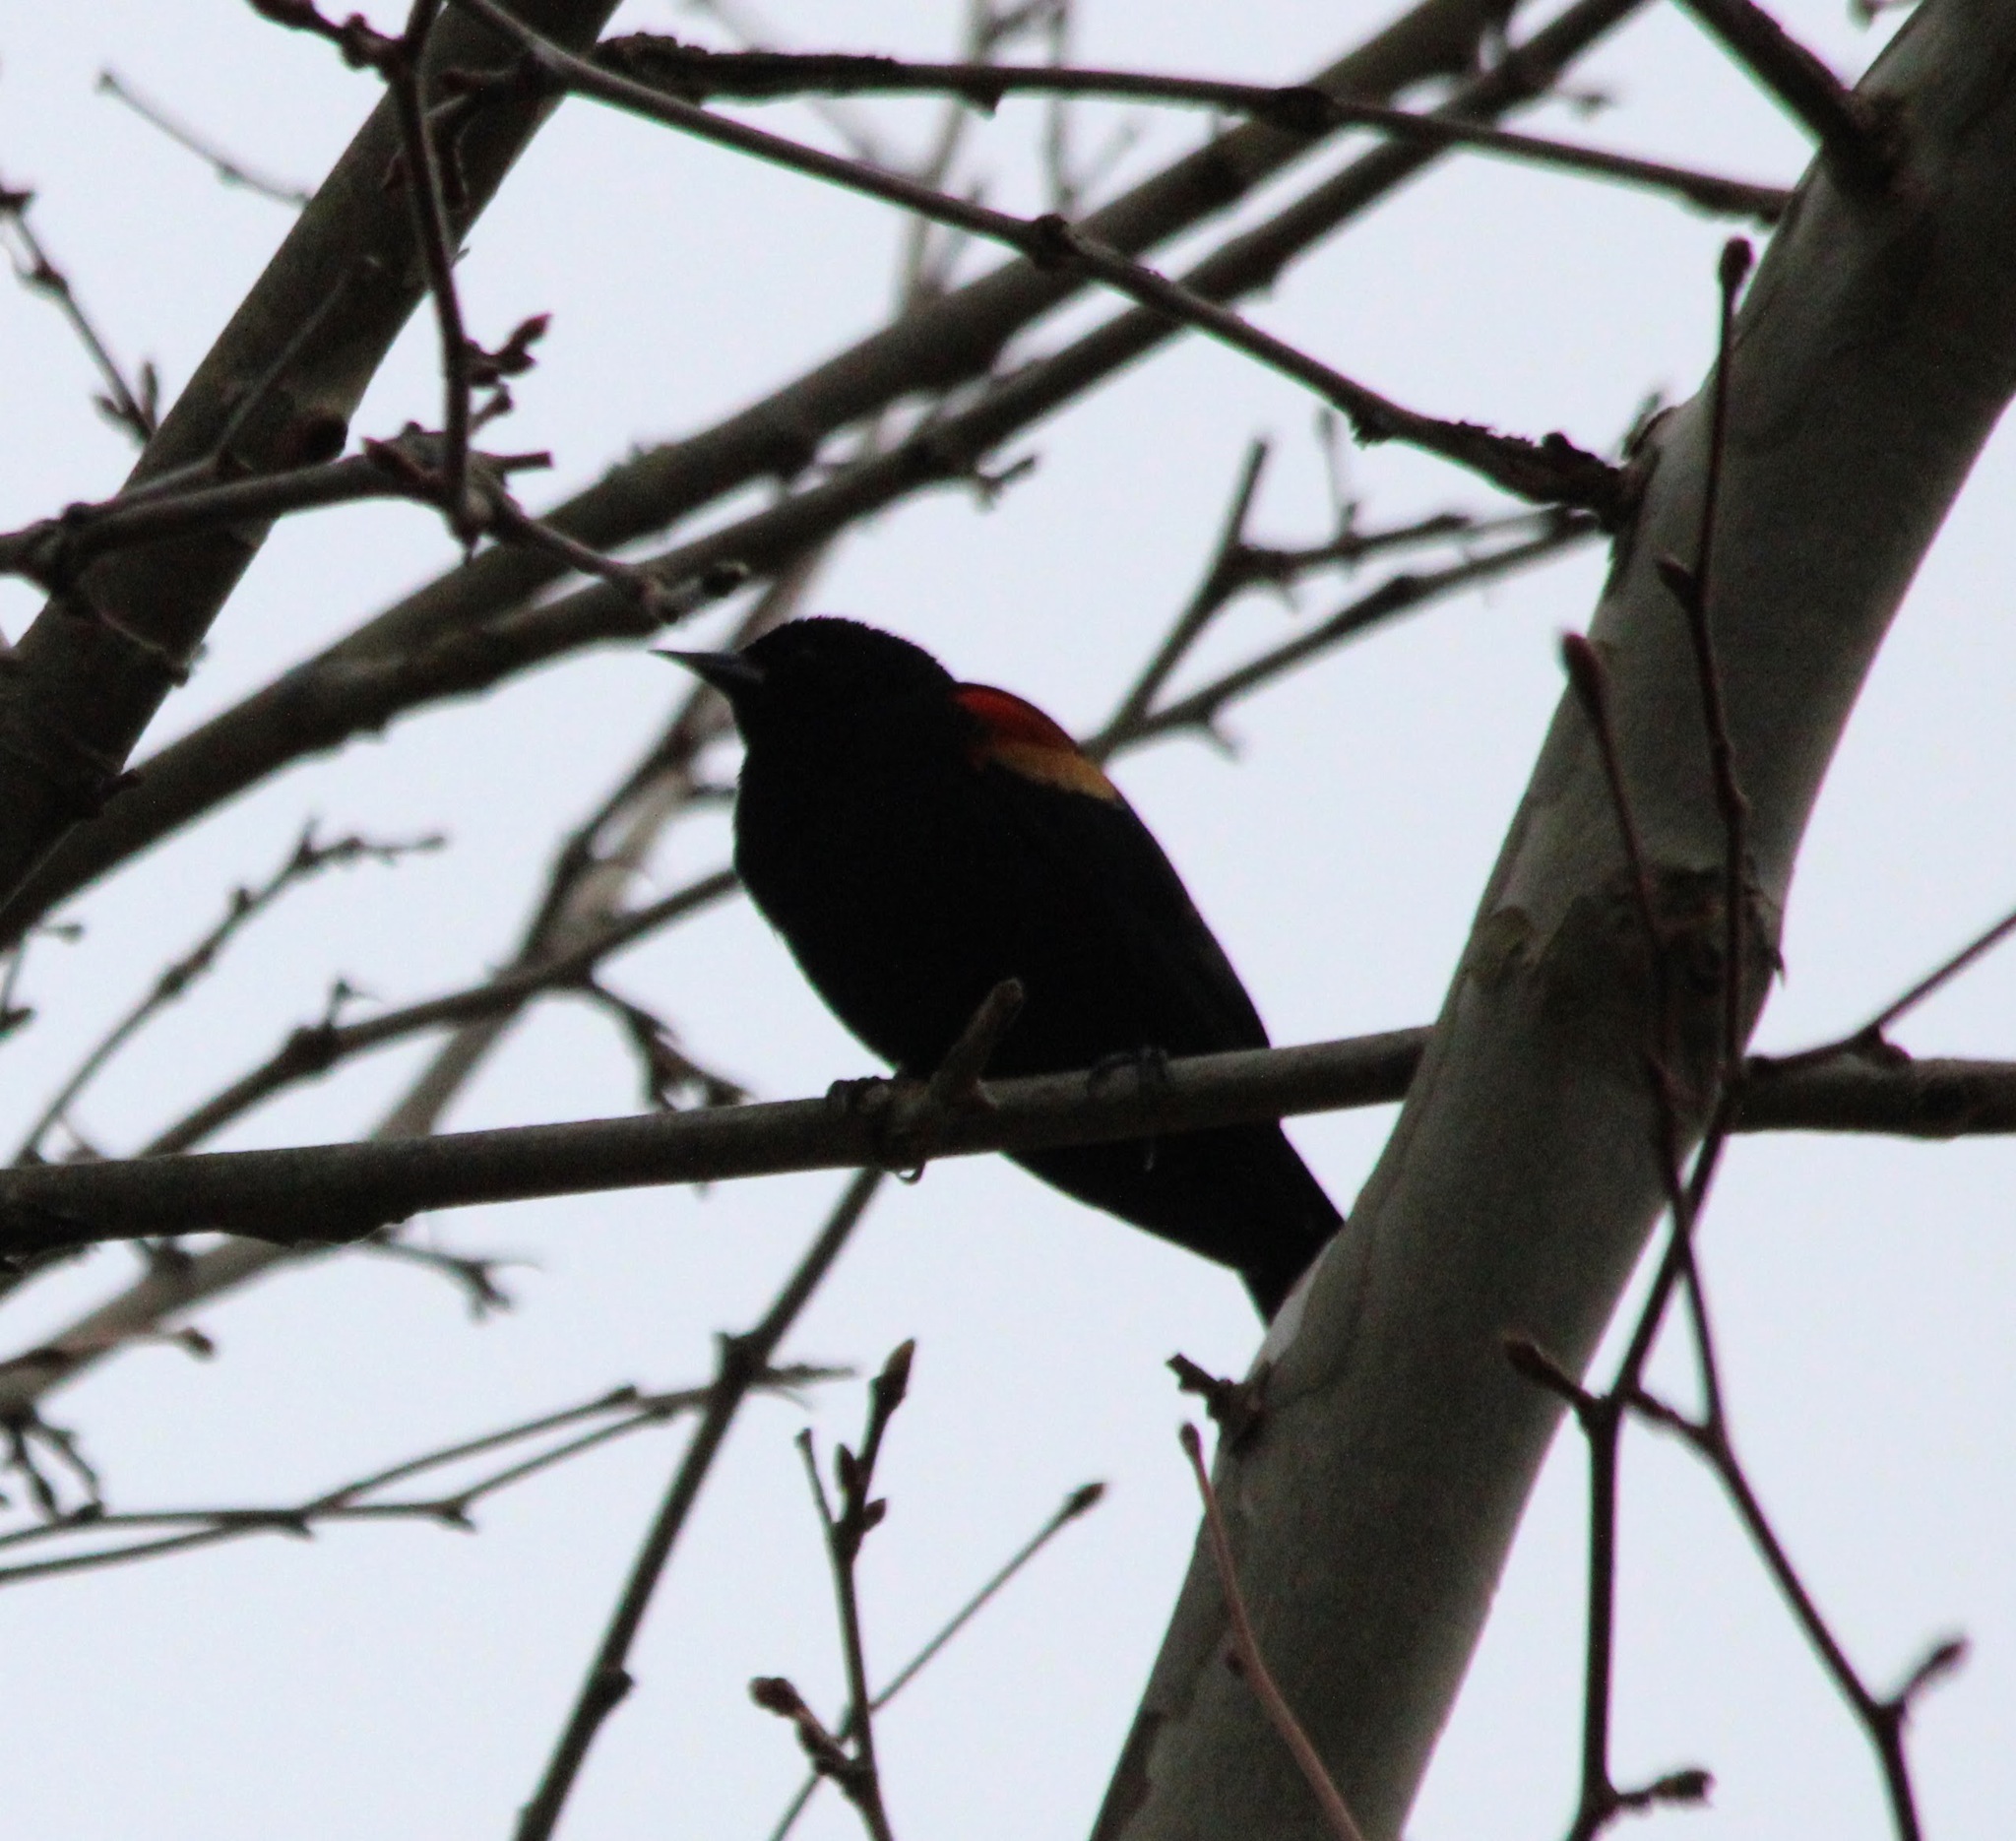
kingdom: Animalia
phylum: Chordata
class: Aves
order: Passeriformes
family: Icteridae
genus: Agelaius
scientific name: Agelaius phoeniceus
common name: Red-winged blackbird
